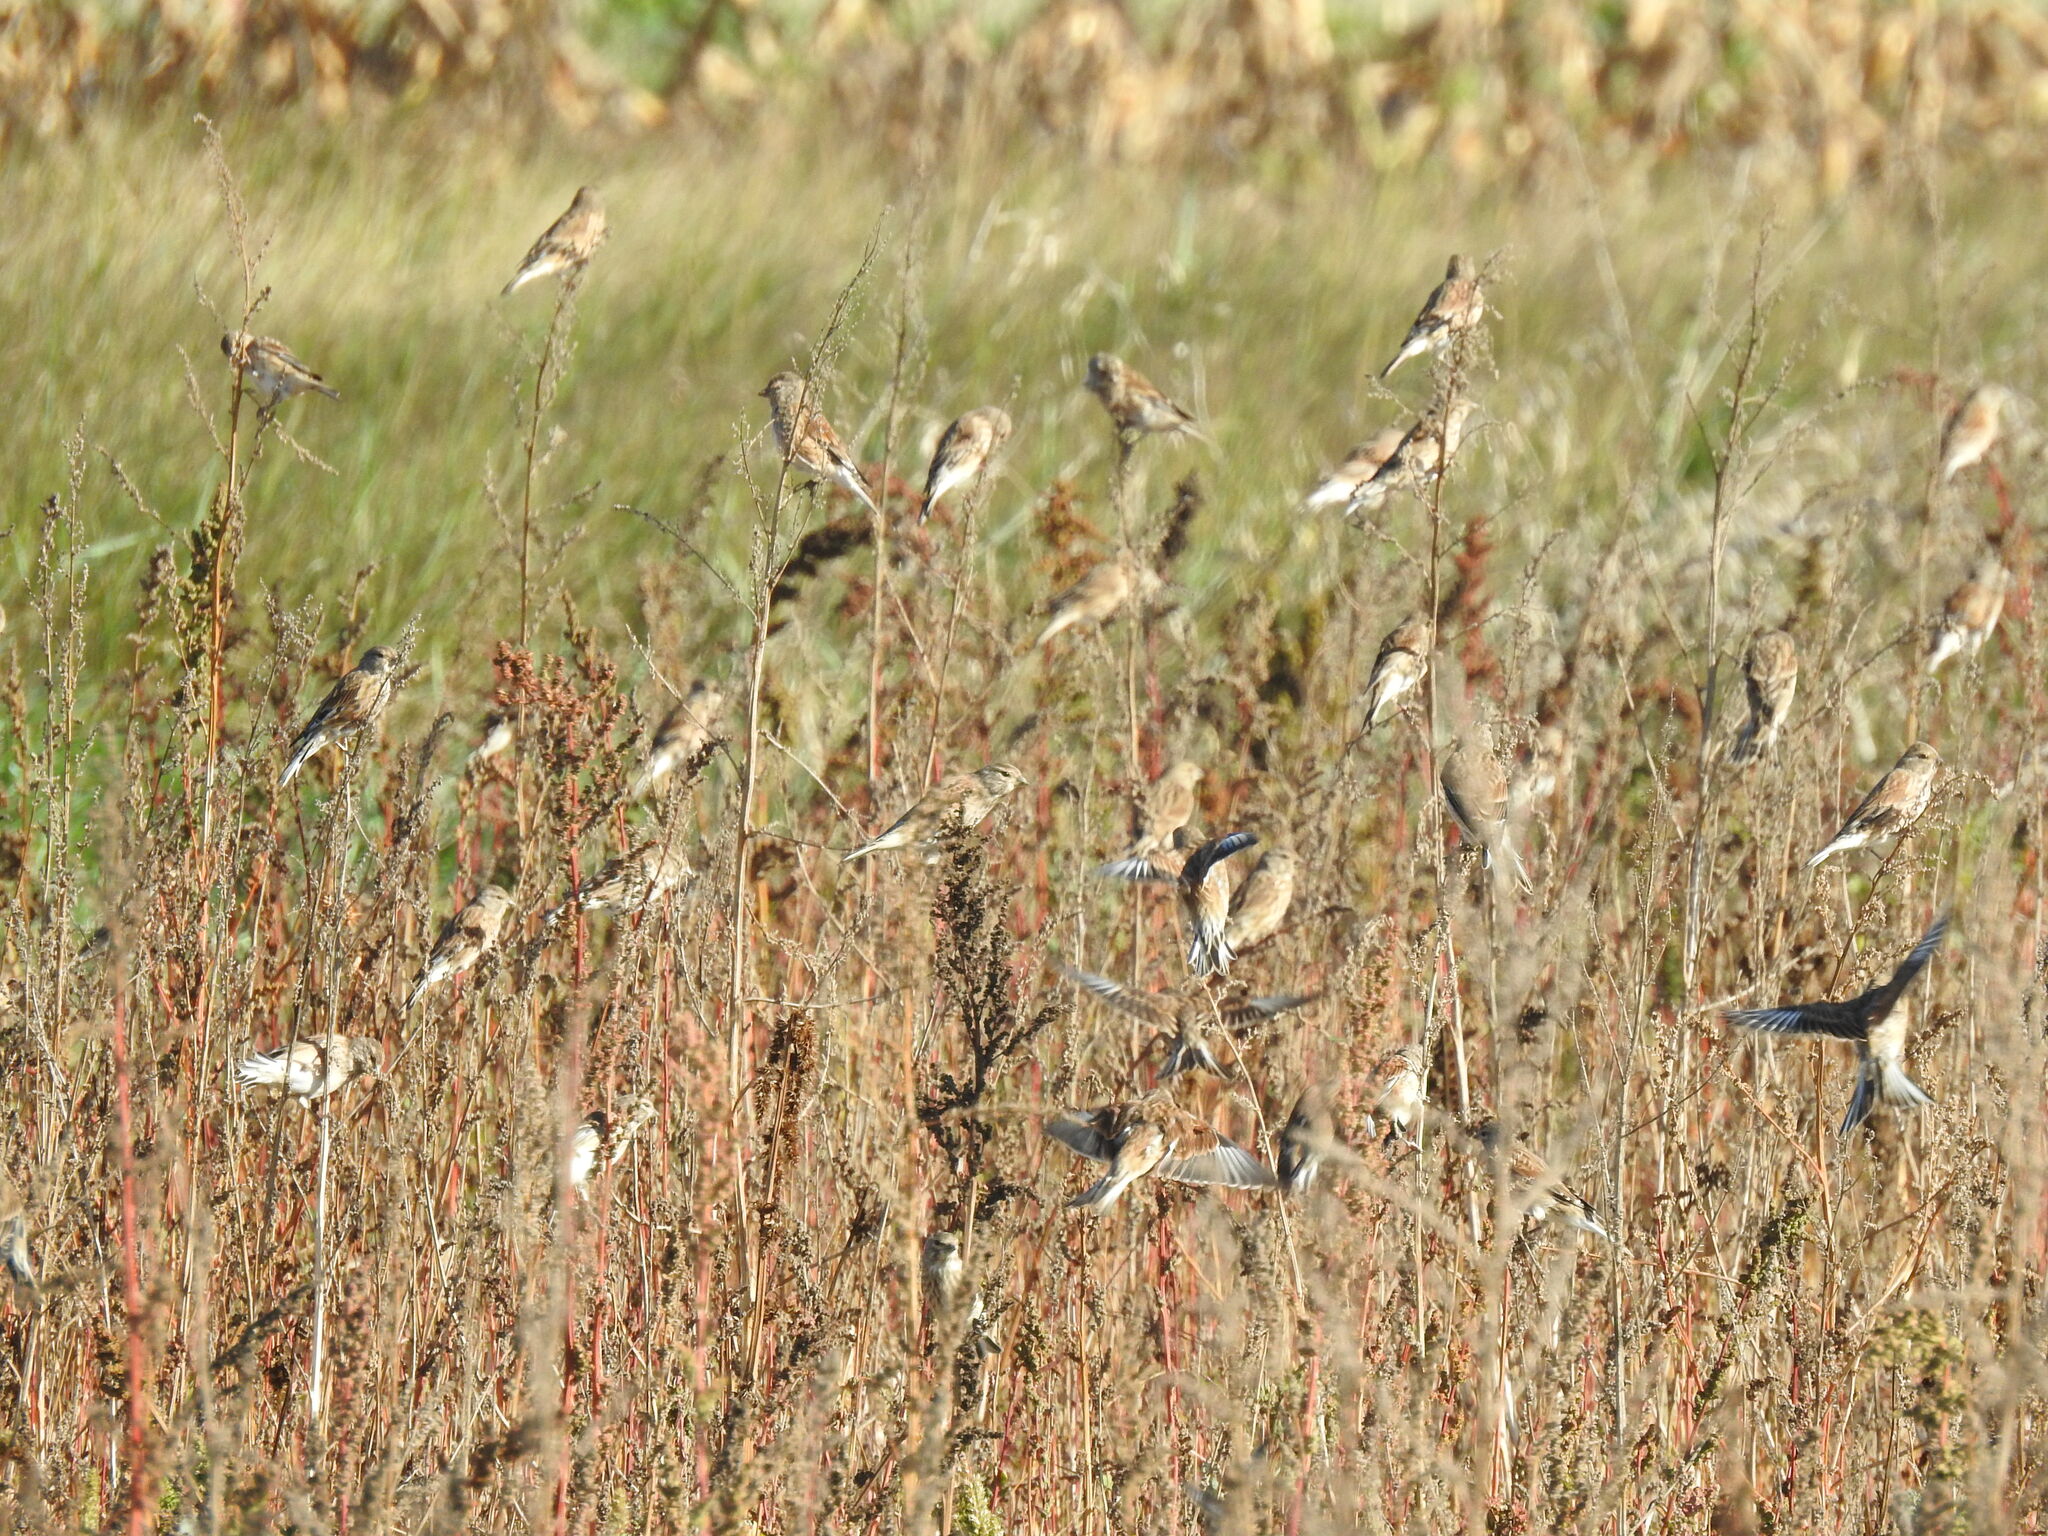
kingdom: Animalia
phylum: Chordata
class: Aves
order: Passeriformes
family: Fringillidae
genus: Linaria
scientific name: Linaria cannabina
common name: Common linnet
